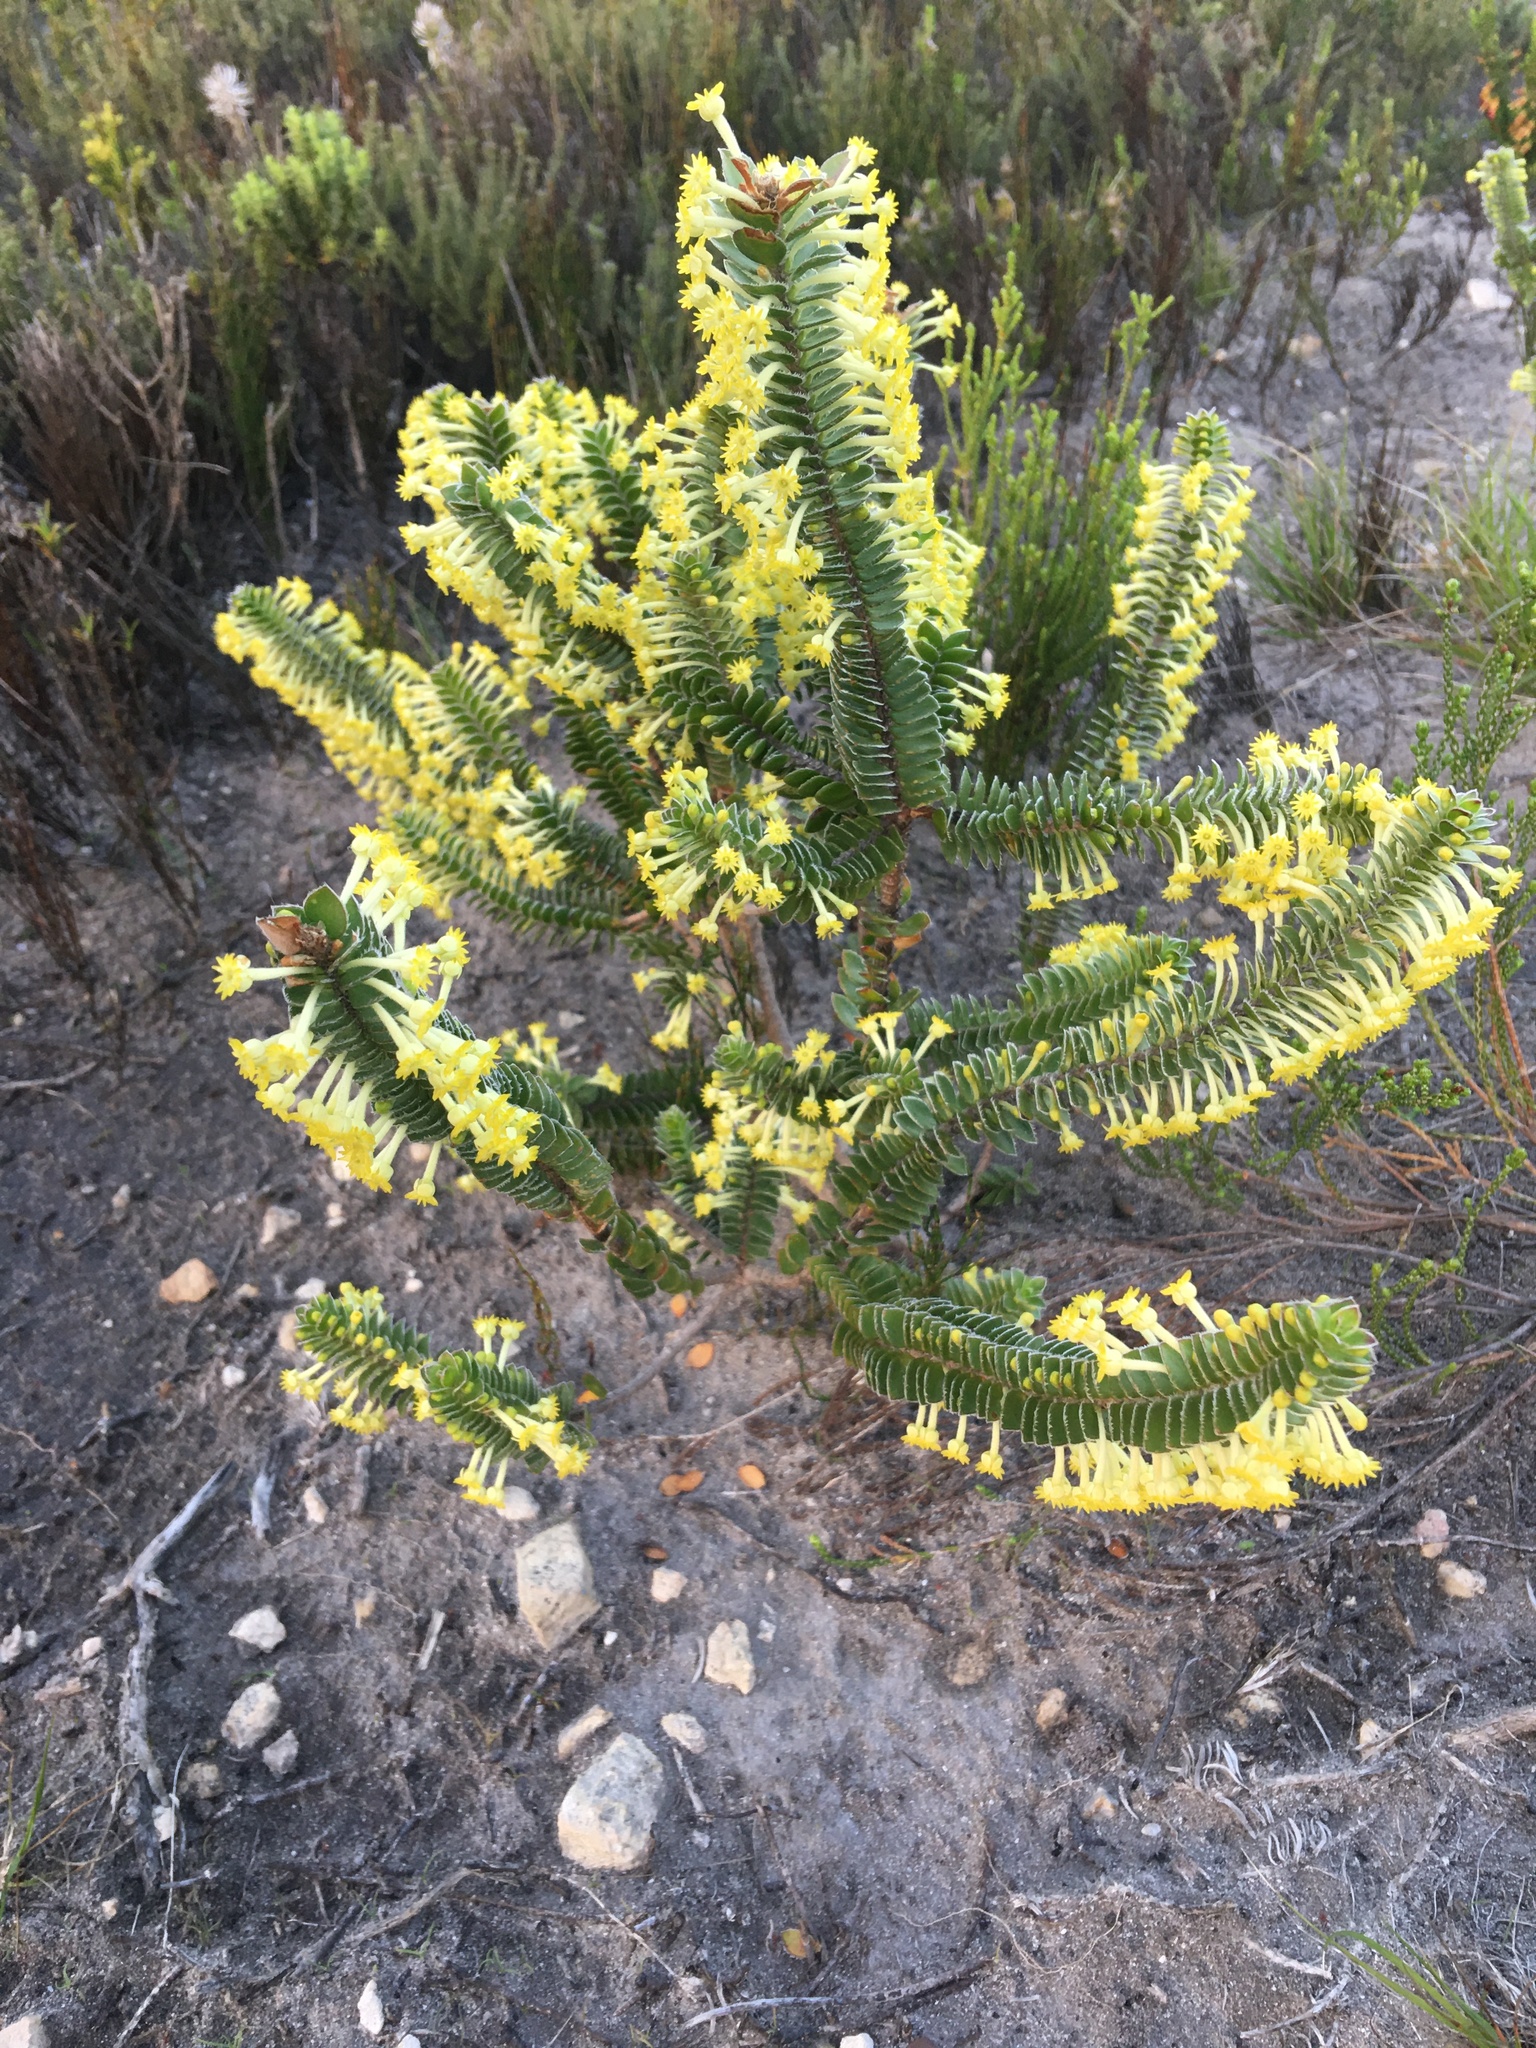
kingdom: Plantae
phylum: Tracheophyta
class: Magnoliopsida
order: Malvales
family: Thymelaeaceae
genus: Struthiola
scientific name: Struthiola argentea
